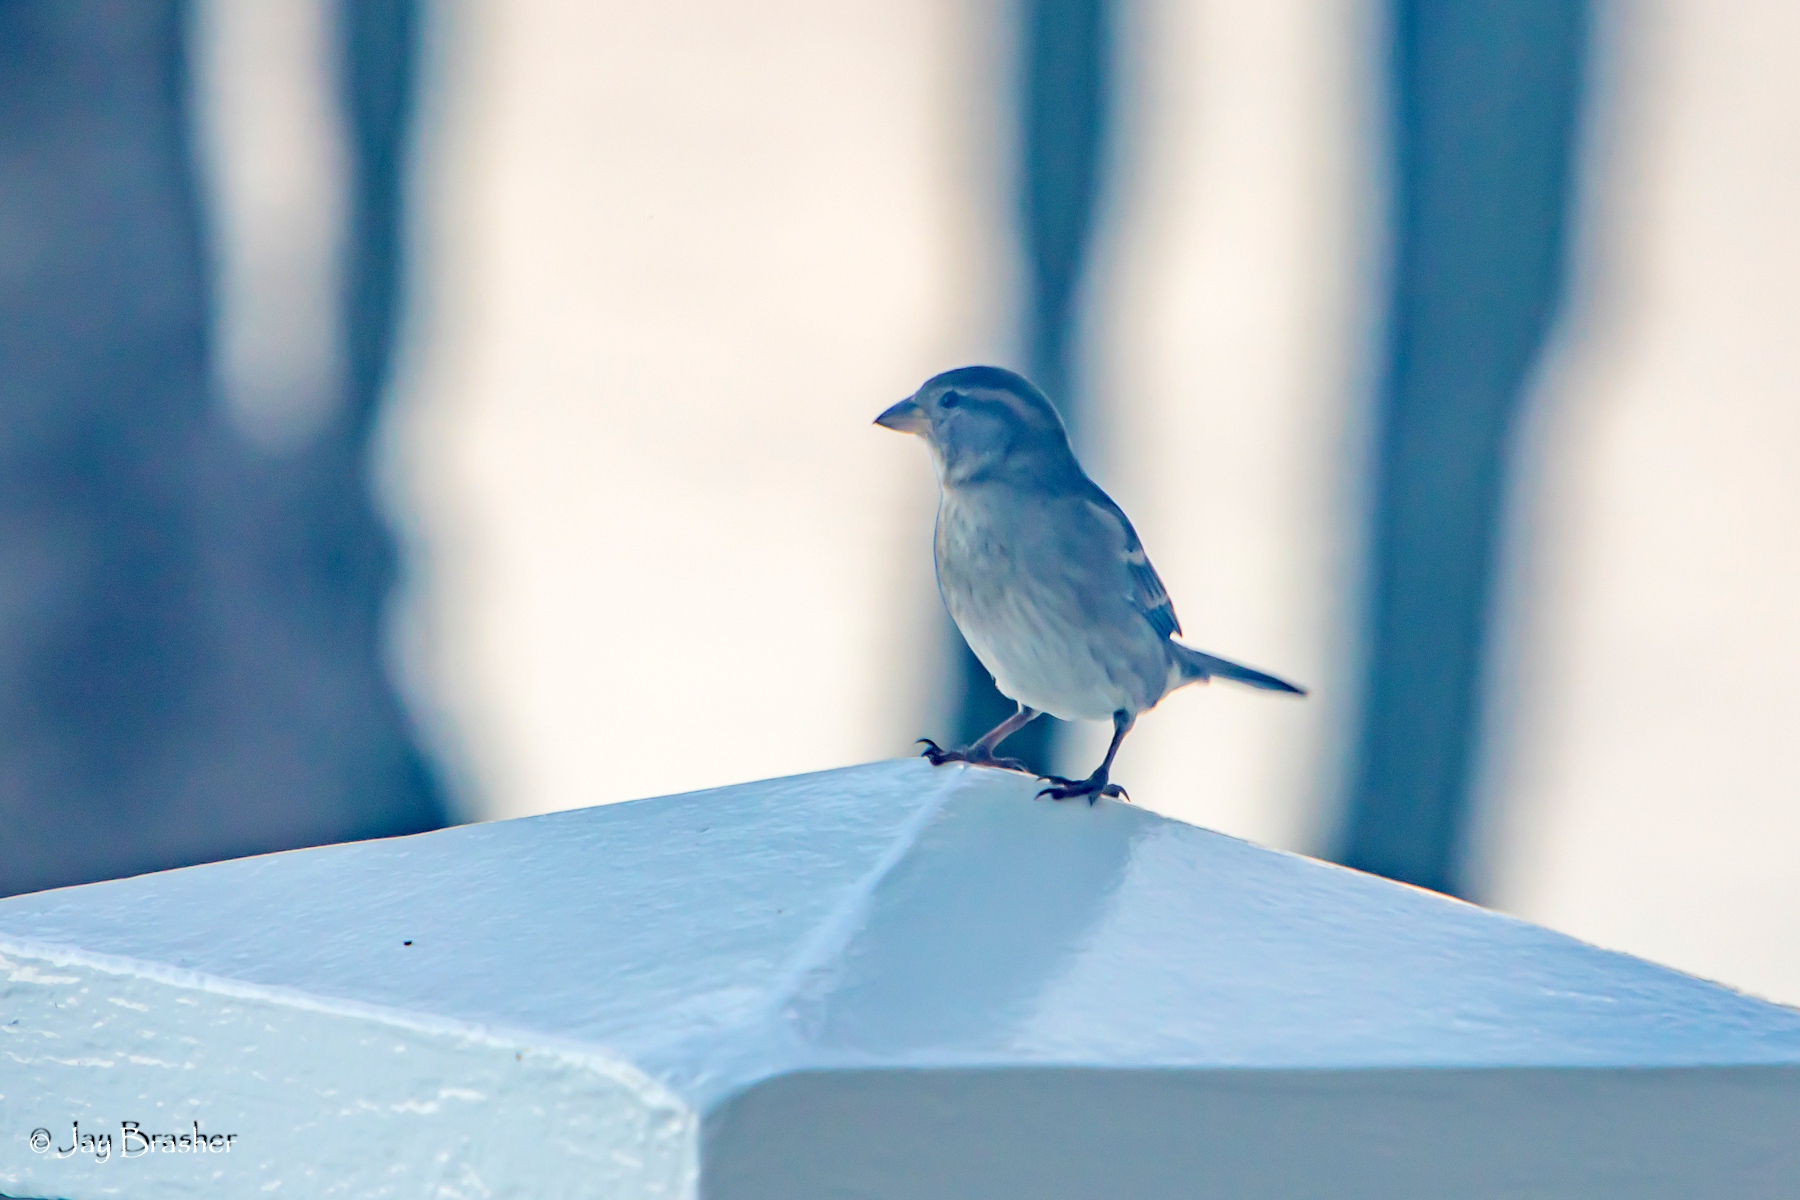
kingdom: Animalia
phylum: Chordata
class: Aves
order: Passeriformes
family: Passeridae
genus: Passer
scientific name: Passer domesticus
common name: House sparrow
